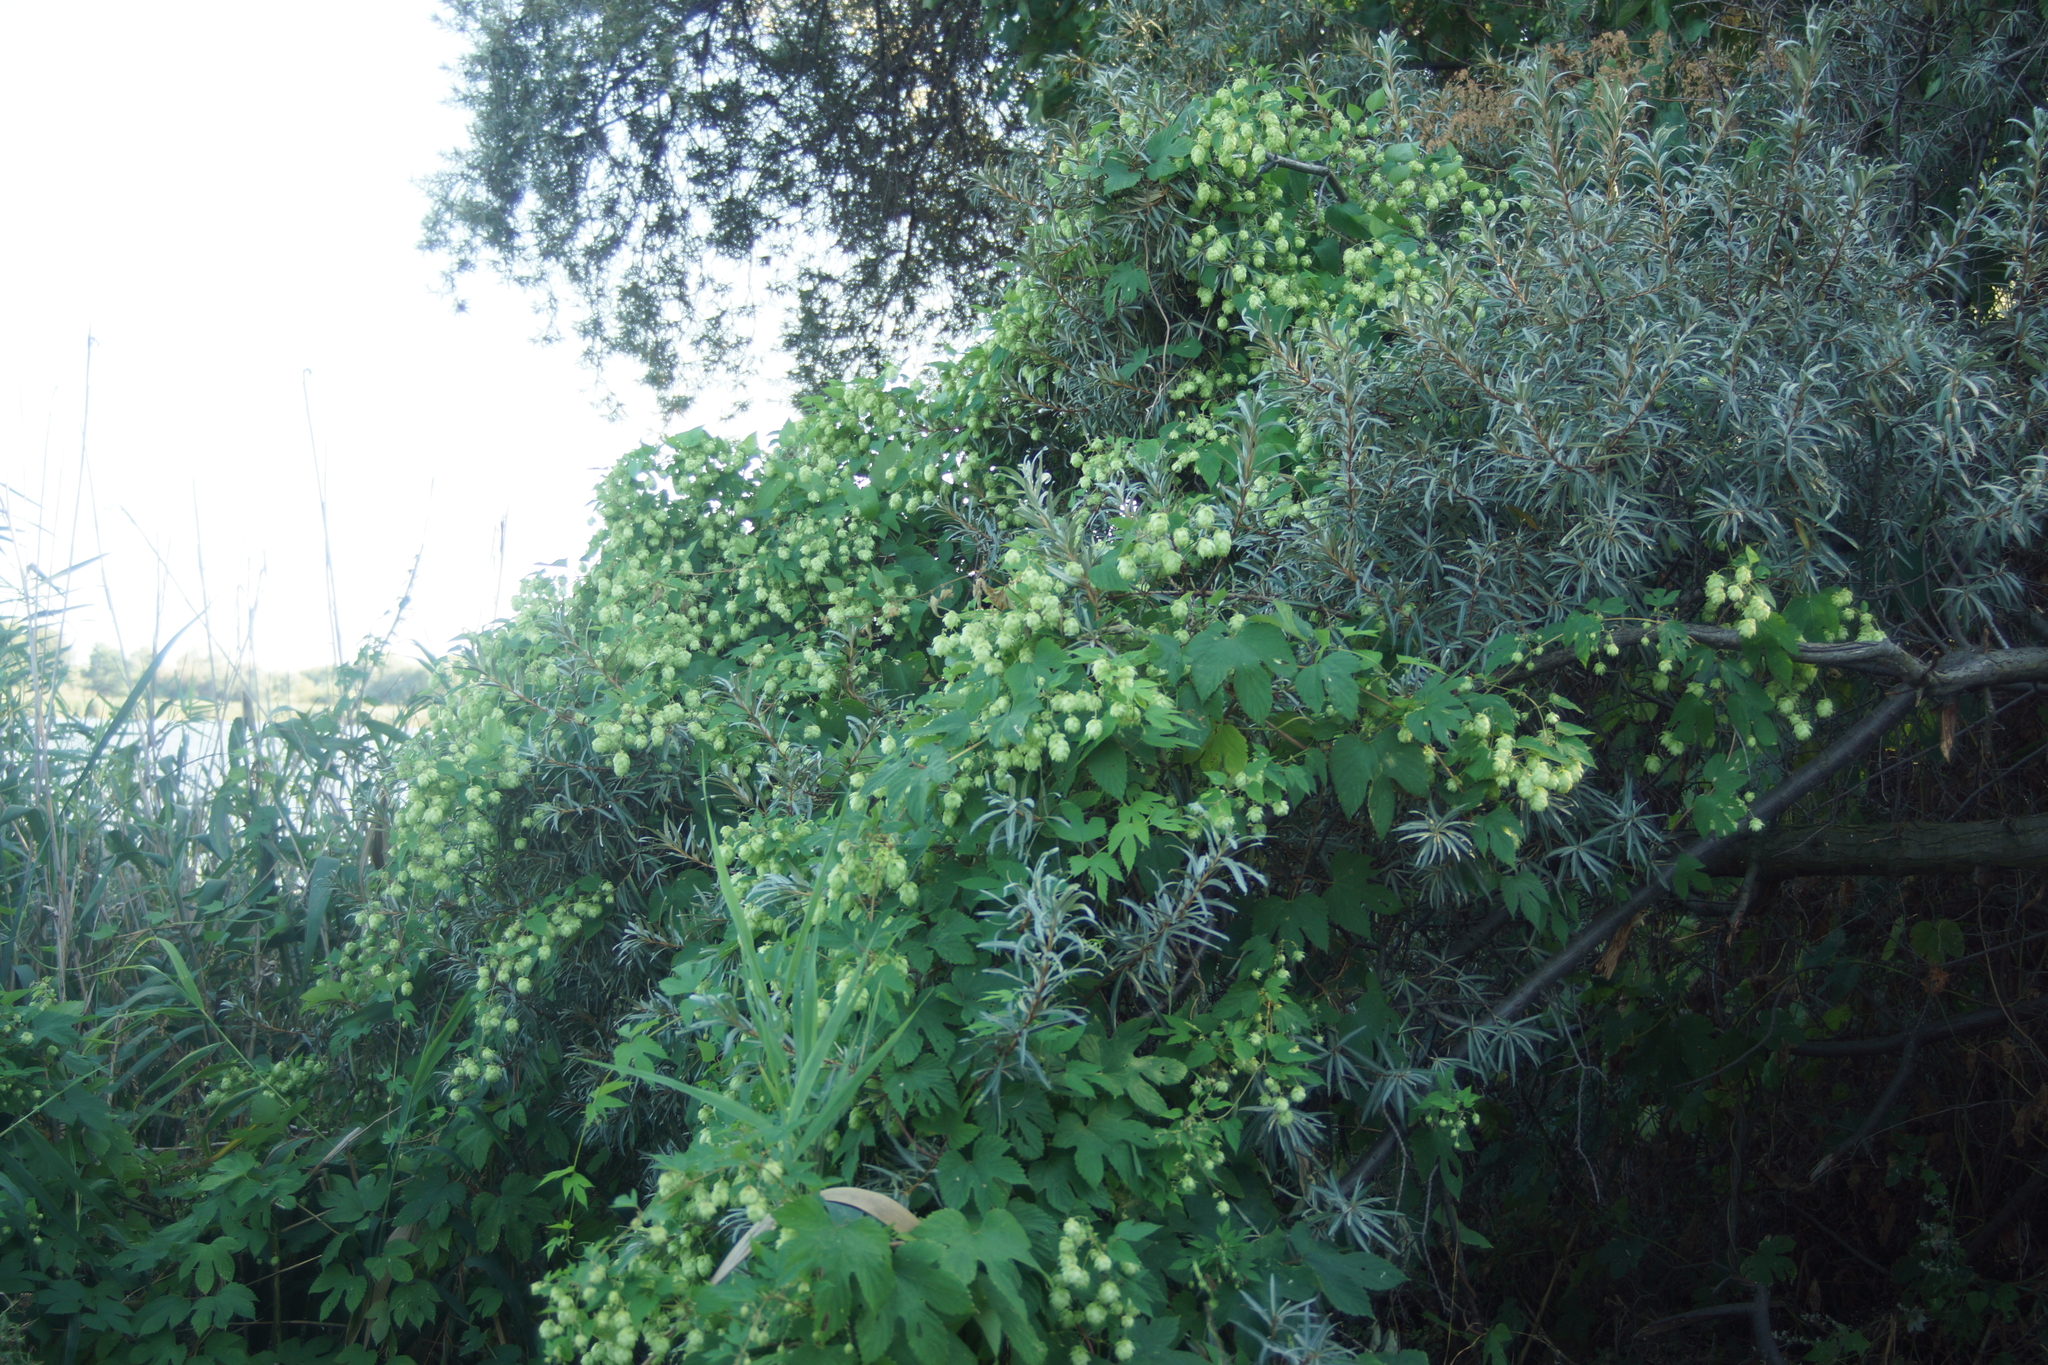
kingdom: Plantae
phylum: Tracheophyta
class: Magnoliopsida
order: Rosales
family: Cannabaceae
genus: Humulus
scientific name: Humulus lupulus
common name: Hop
